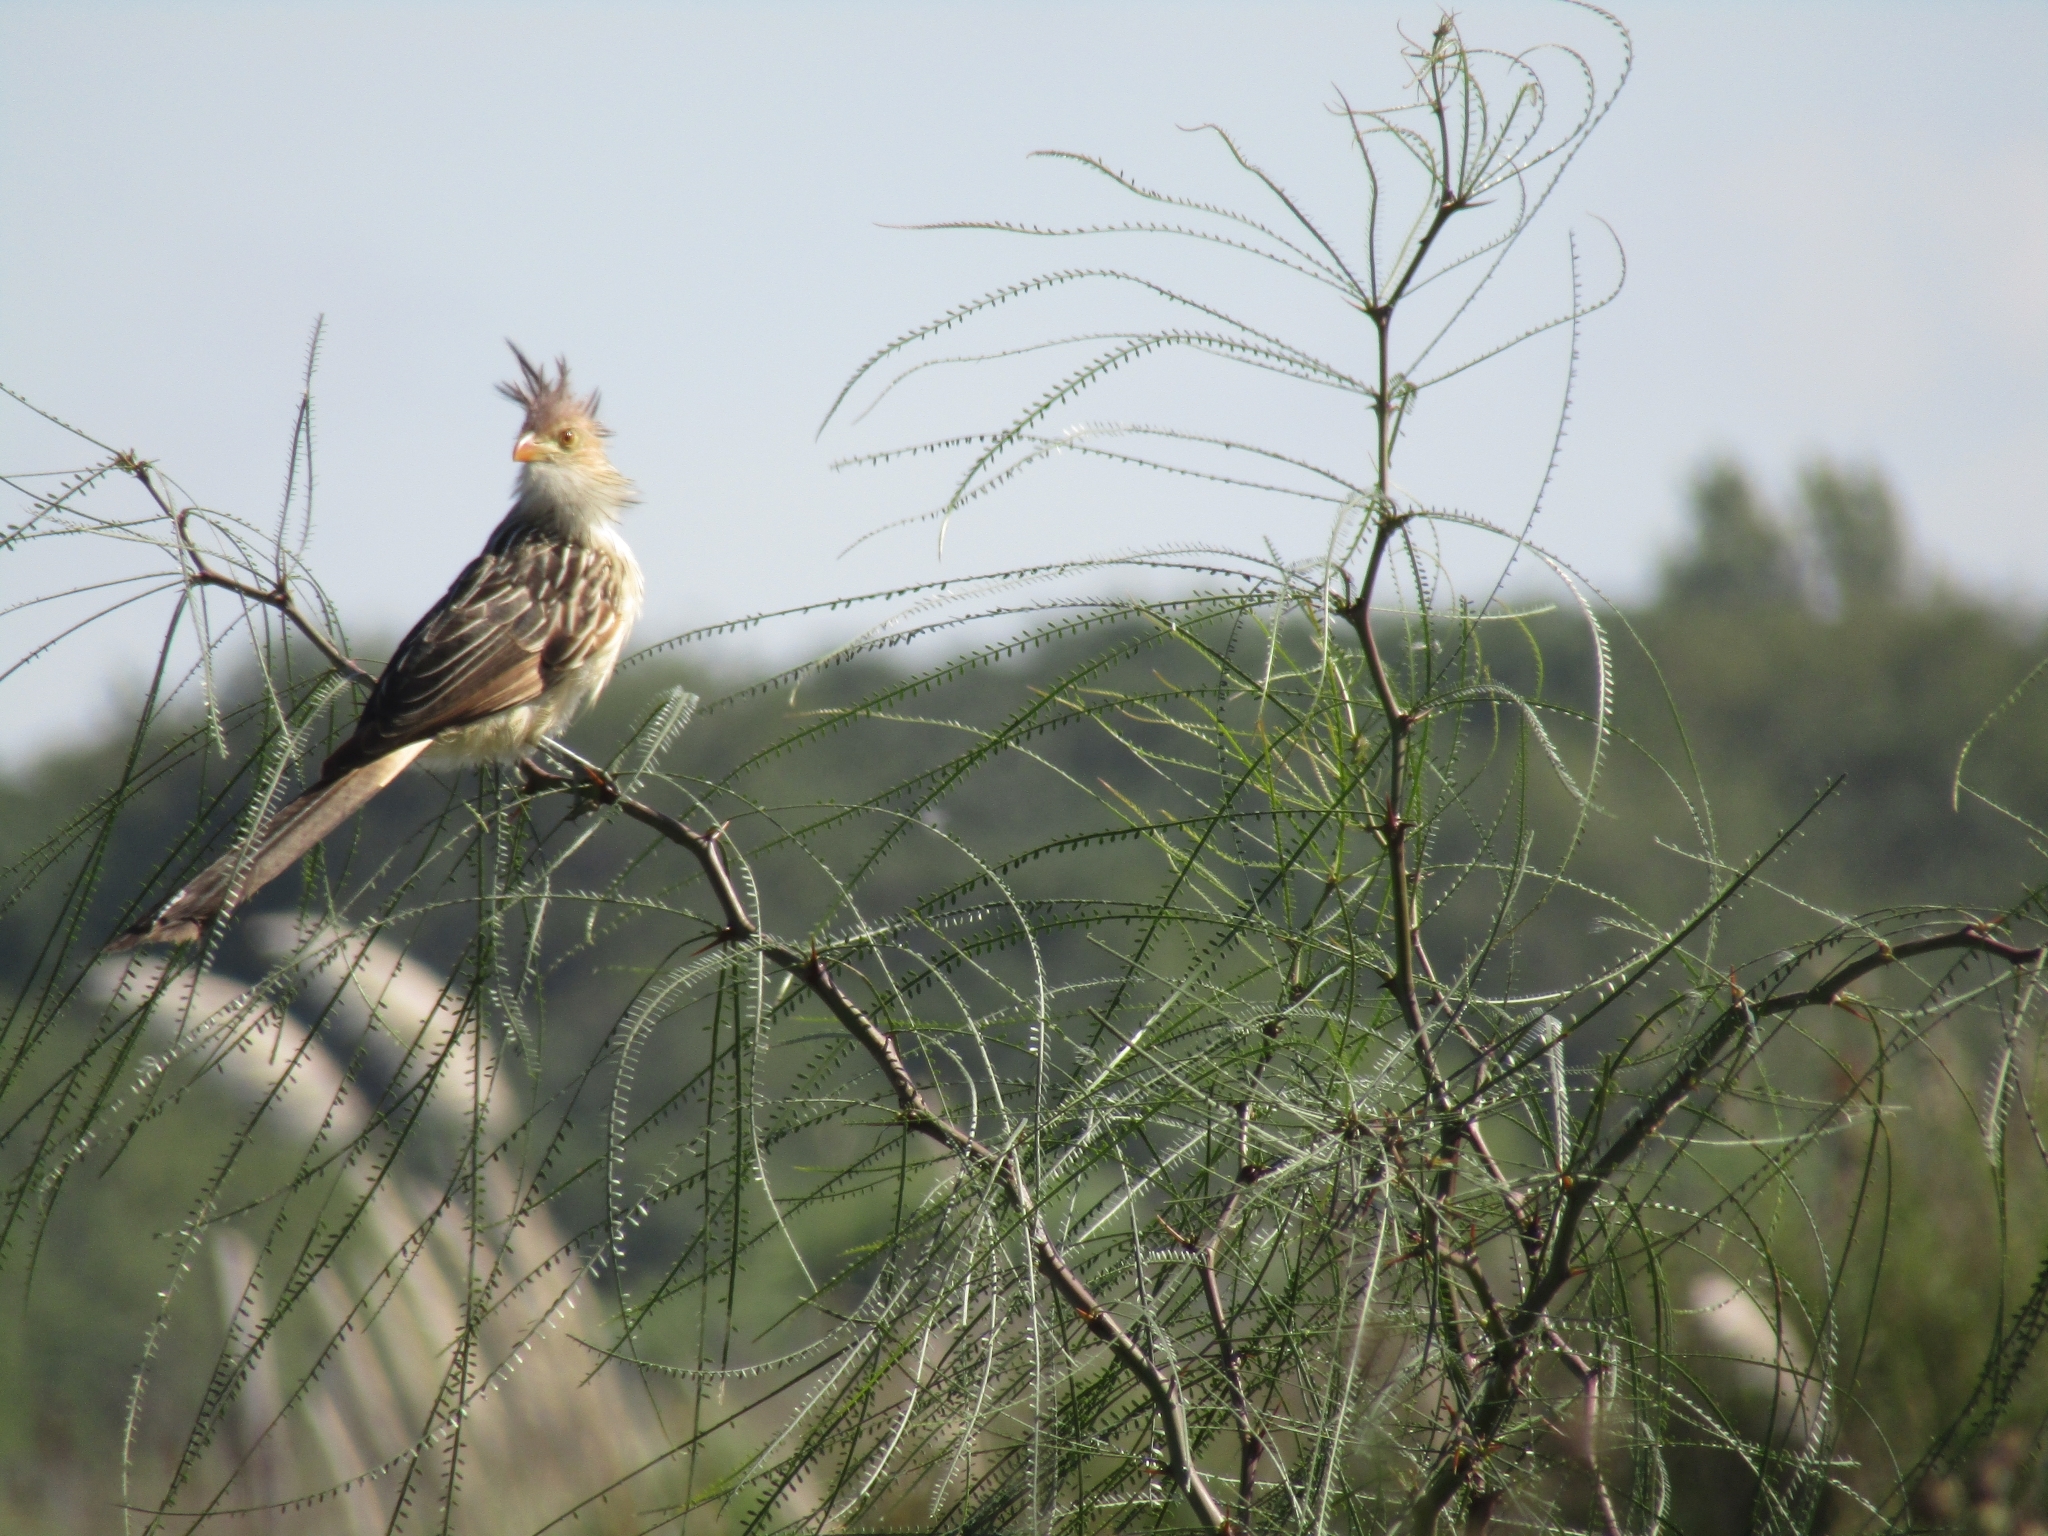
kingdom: Animalia
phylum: Chordata
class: Aves
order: Cuculiformes
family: Cuculidae
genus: Guira
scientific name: Guira guira
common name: Guira cuckoo
